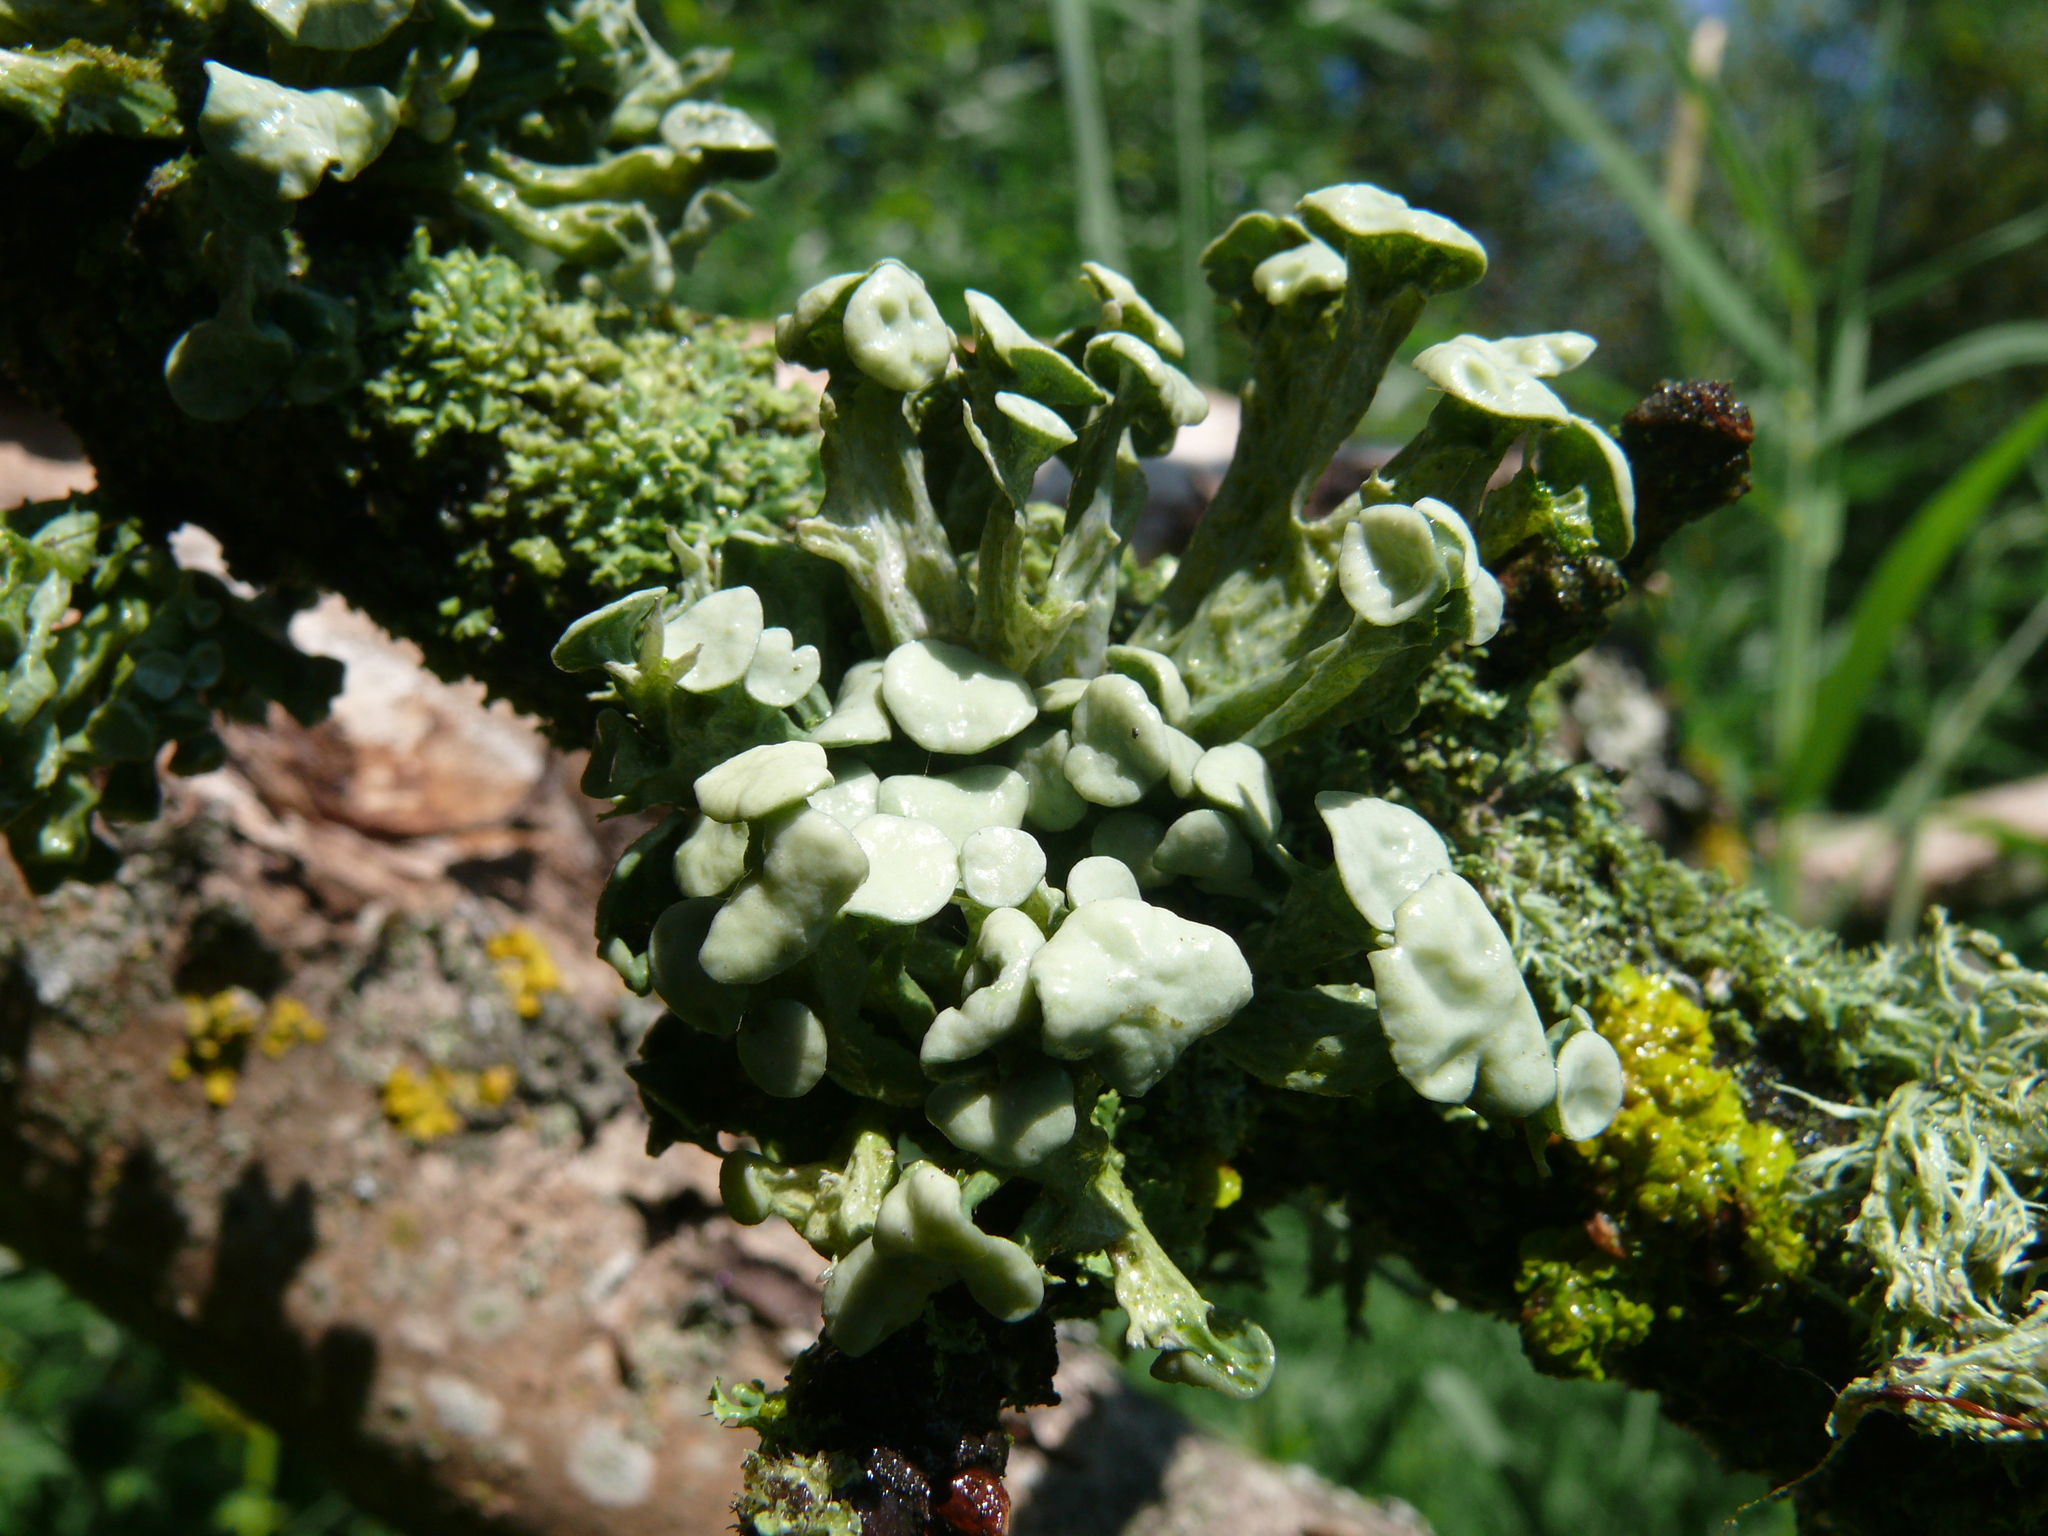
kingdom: Fungi
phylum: Ascomycota
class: Lecanoromycetes
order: Lecanorales
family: Ramalinaceae
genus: Ramalina
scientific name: Ramalina fastigiata
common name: Dotted ribbon lichen
